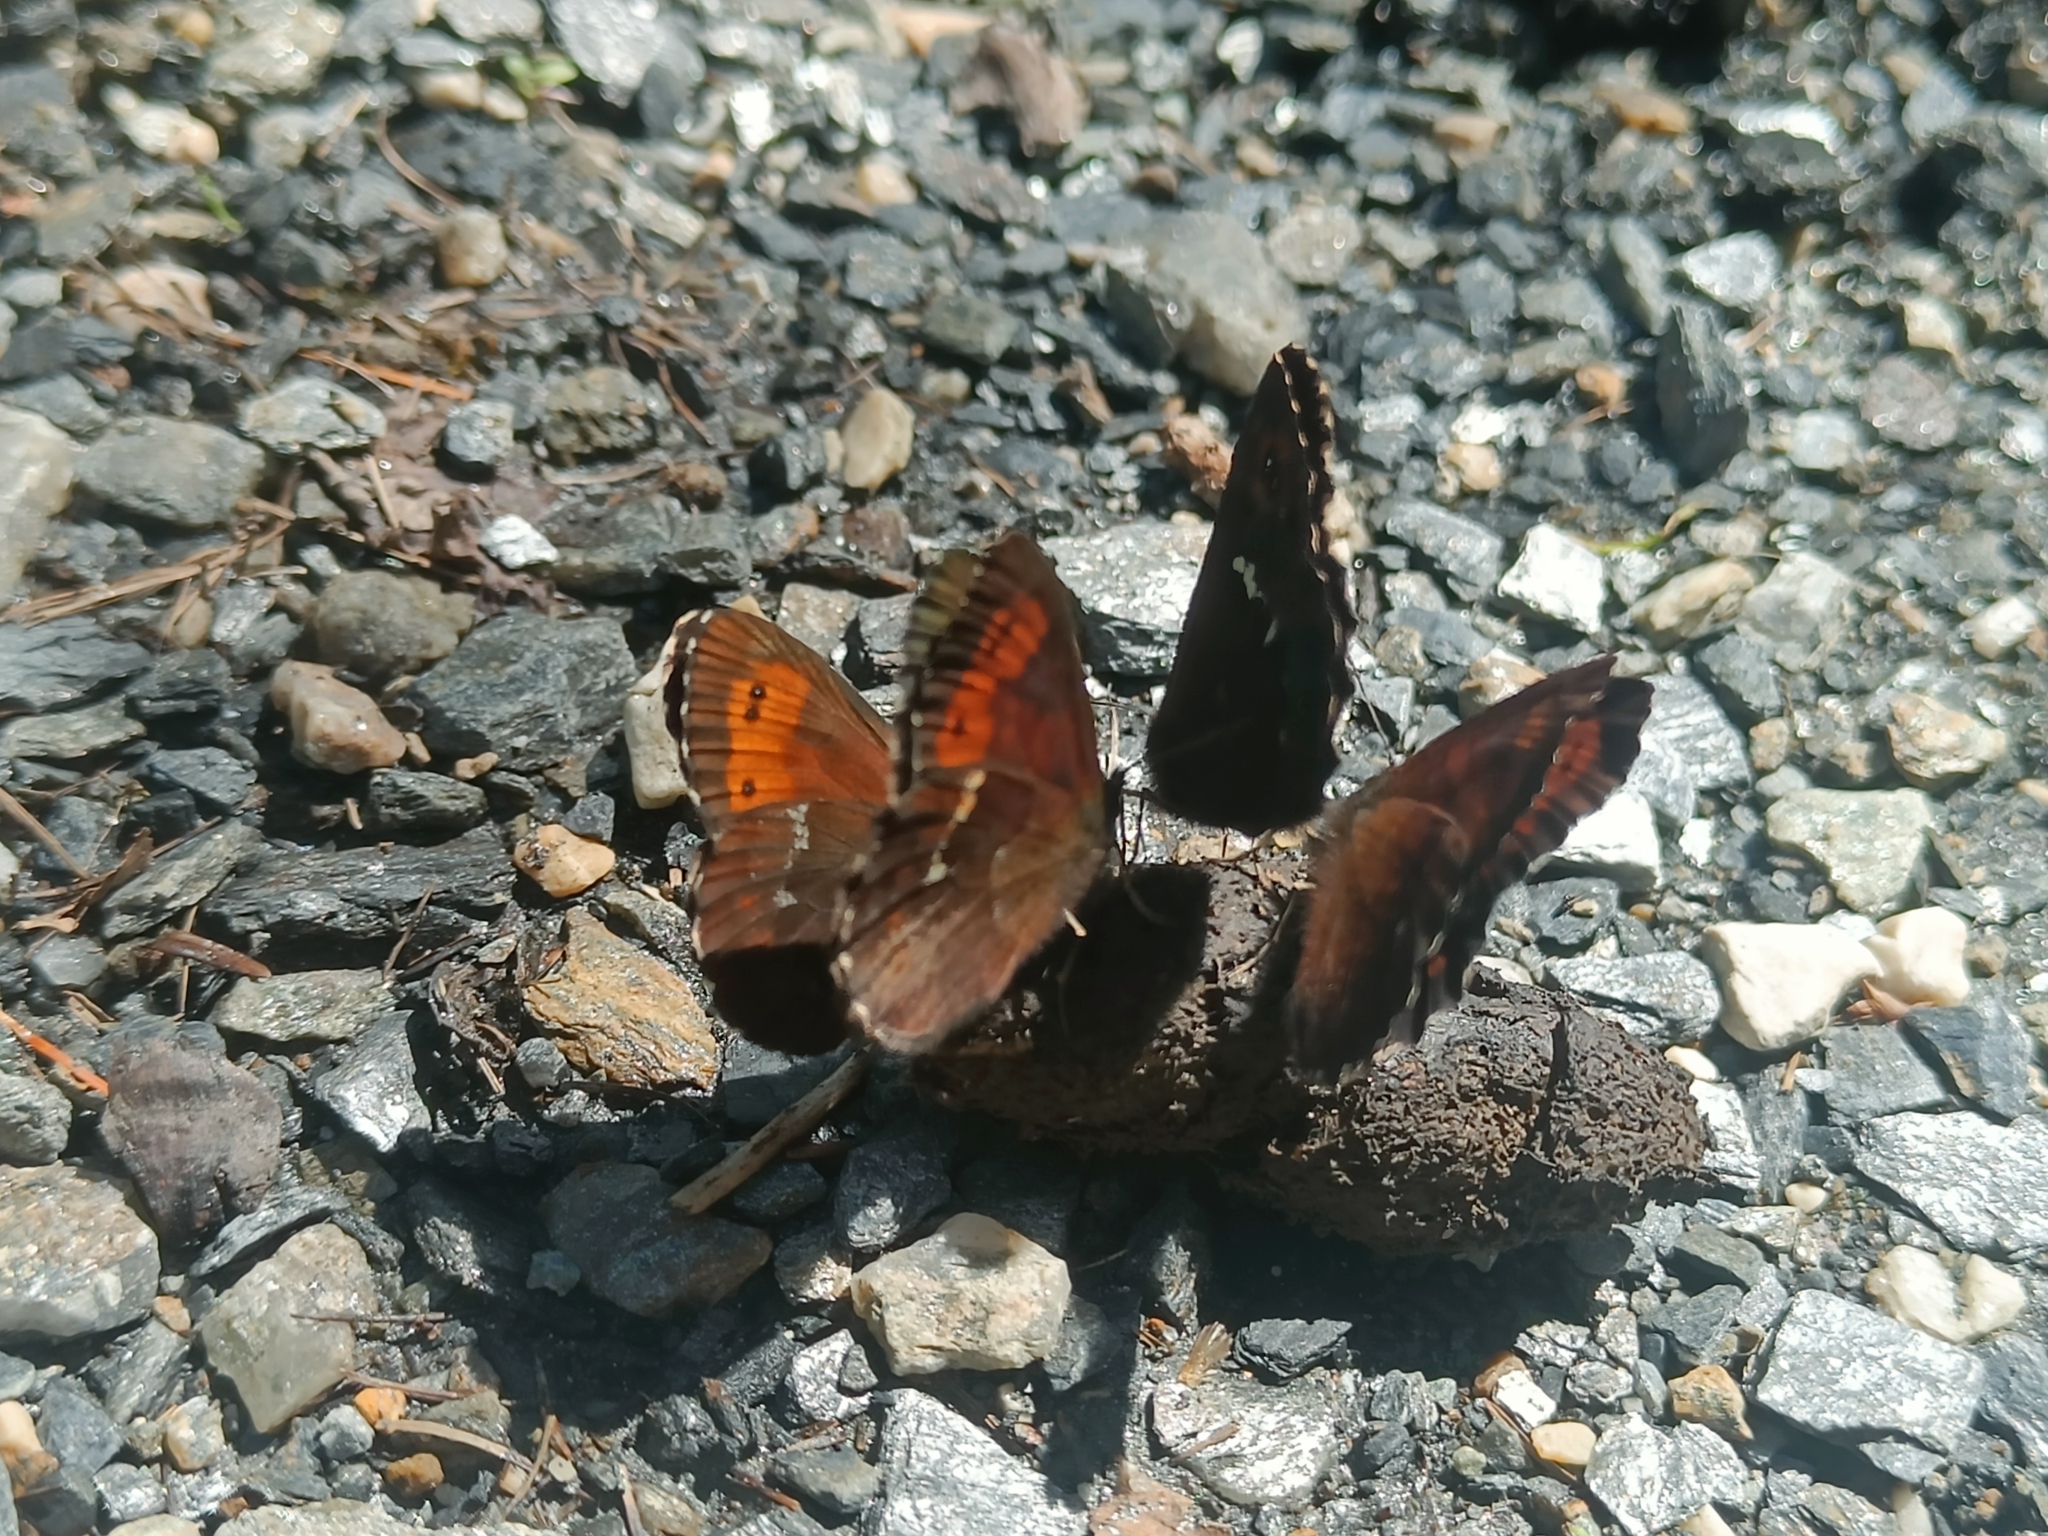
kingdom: Animalia
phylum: Arthropoda
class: Insecta
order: Lepidoptera
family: Nymphalidae
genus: Erebia
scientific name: Erebia ligea
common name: Arran brown
